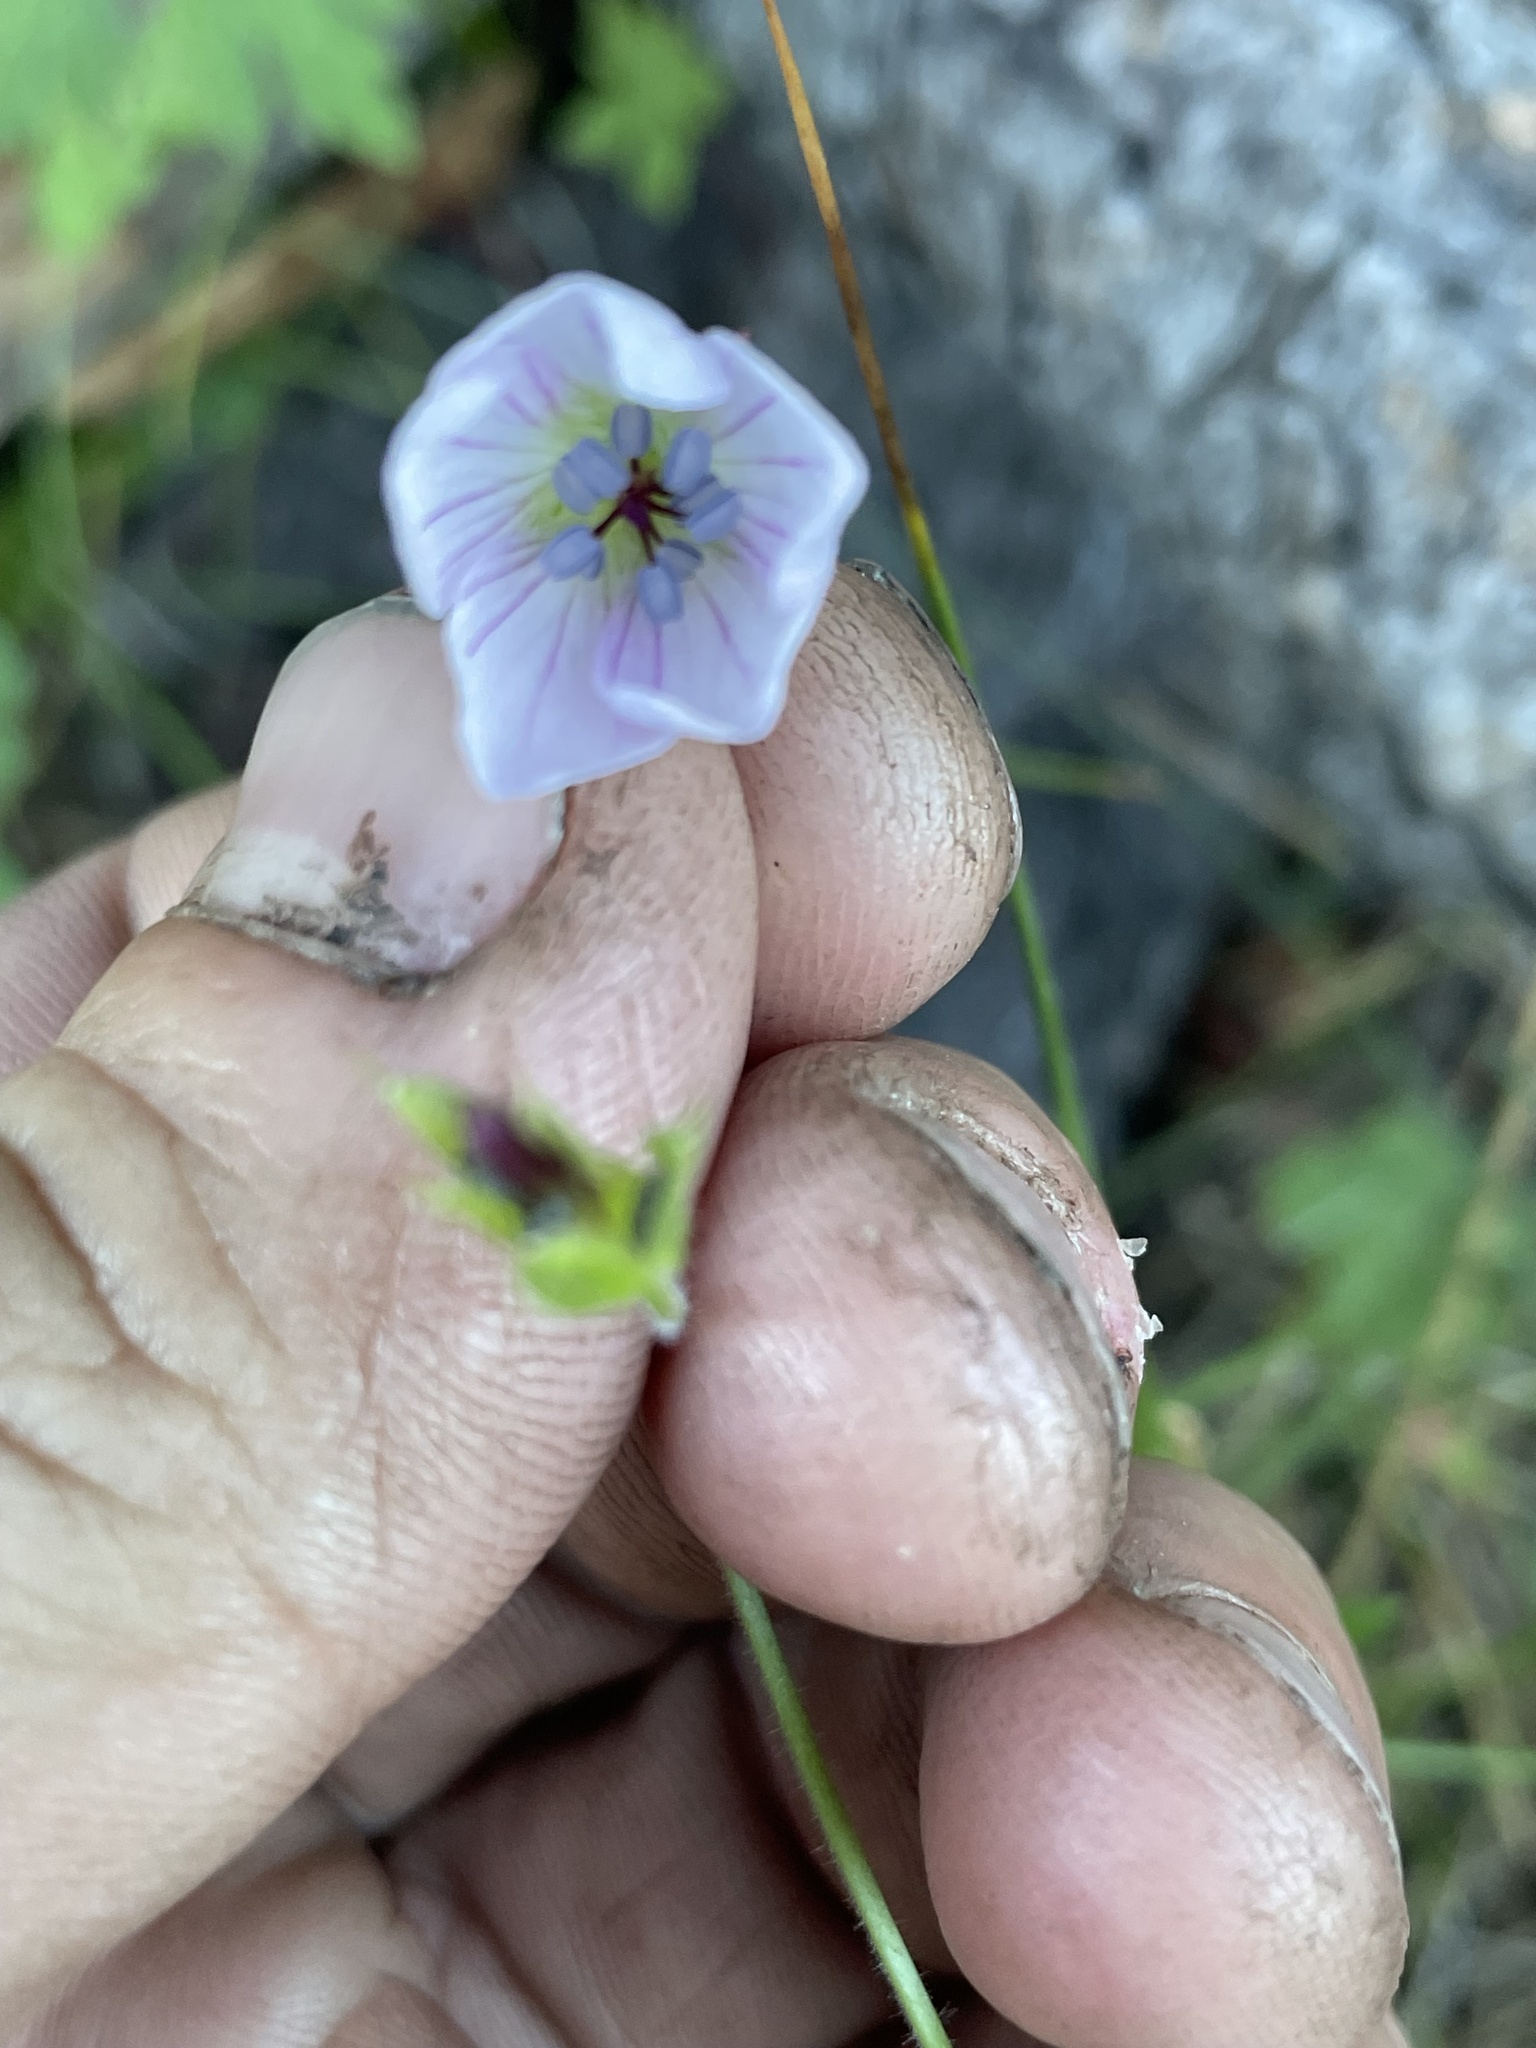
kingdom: Plantae
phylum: Tracheophyta
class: Magnoliopsida
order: Geraniales
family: Geraniaceae
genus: Geranium
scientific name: Geranium richardsonii
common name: Richardson's crane's-bill
